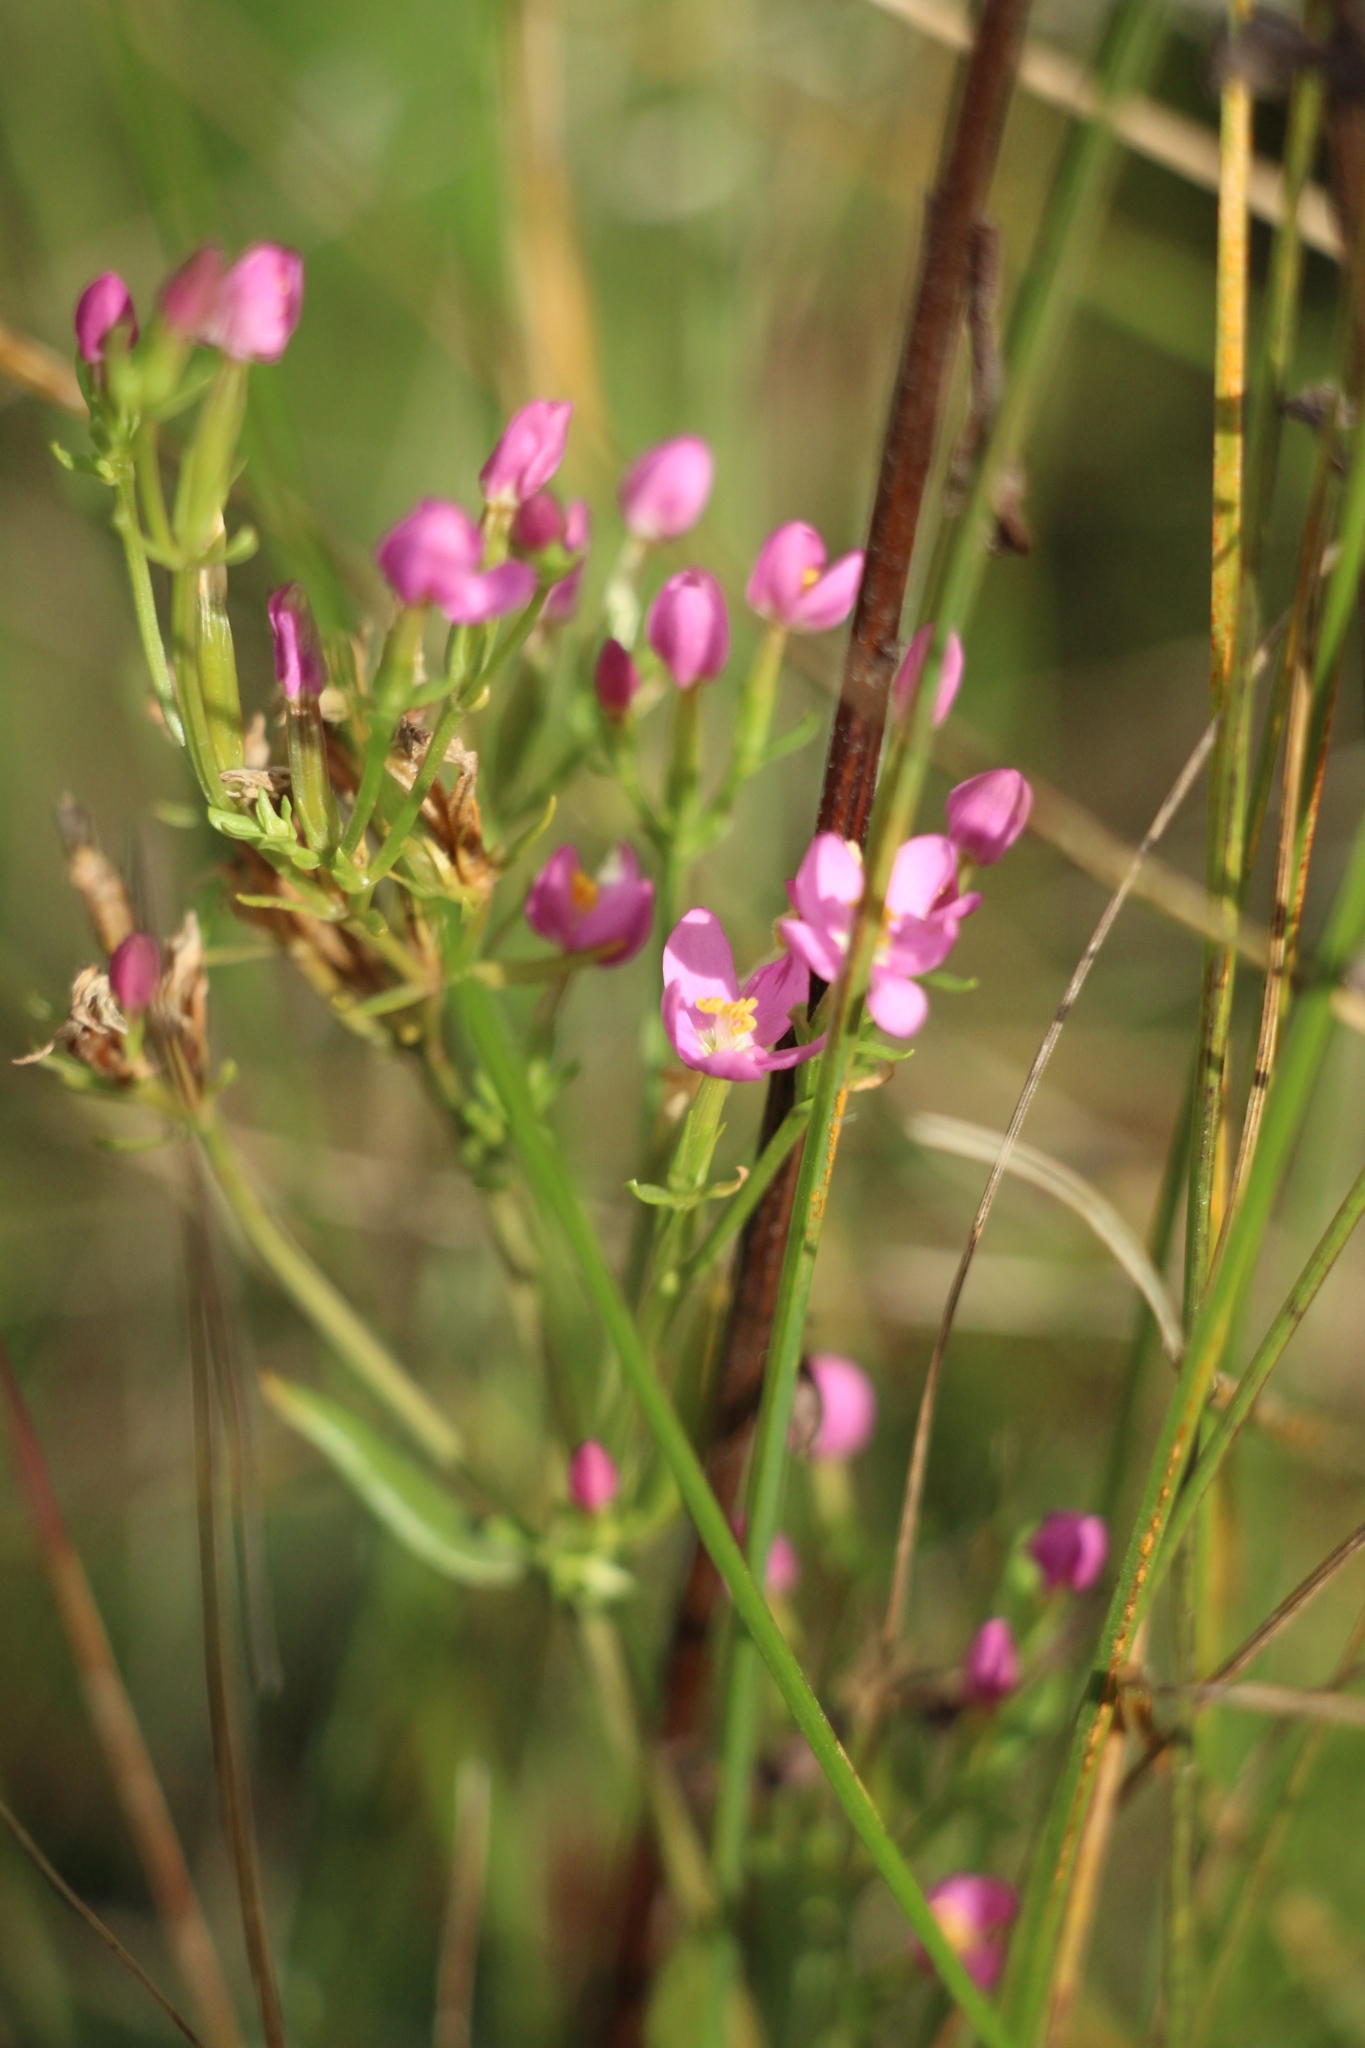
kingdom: Plantae
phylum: Tracheophyta
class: Magnoliopsida
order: Gentianales
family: Gentianaceae
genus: Centaurium
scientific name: Centaurium erythraea
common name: Common centaury
